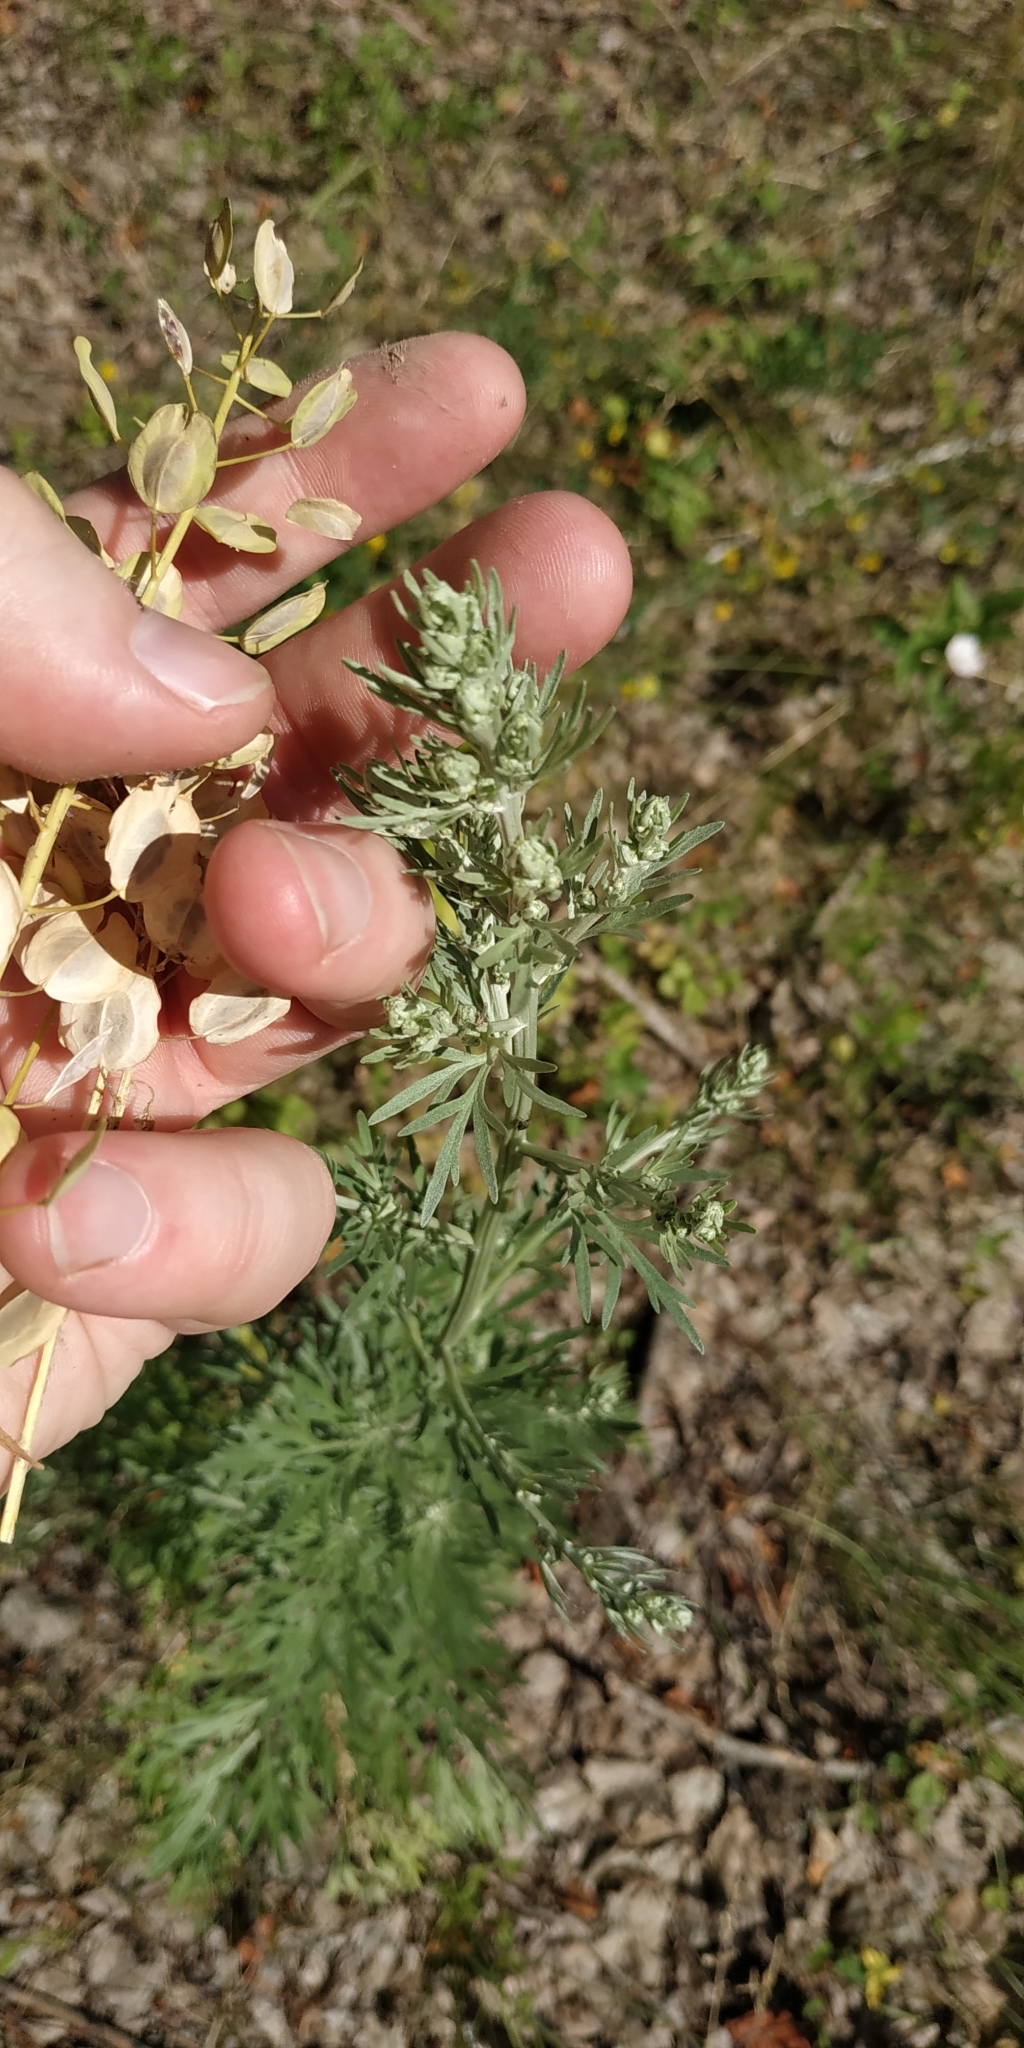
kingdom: Plantae
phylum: Tracheophyta
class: Magnoliopsida
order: Asterales
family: Asteraceae
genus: Artemisia
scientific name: Artemisia sieversiana
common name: Sieversian wormwood
